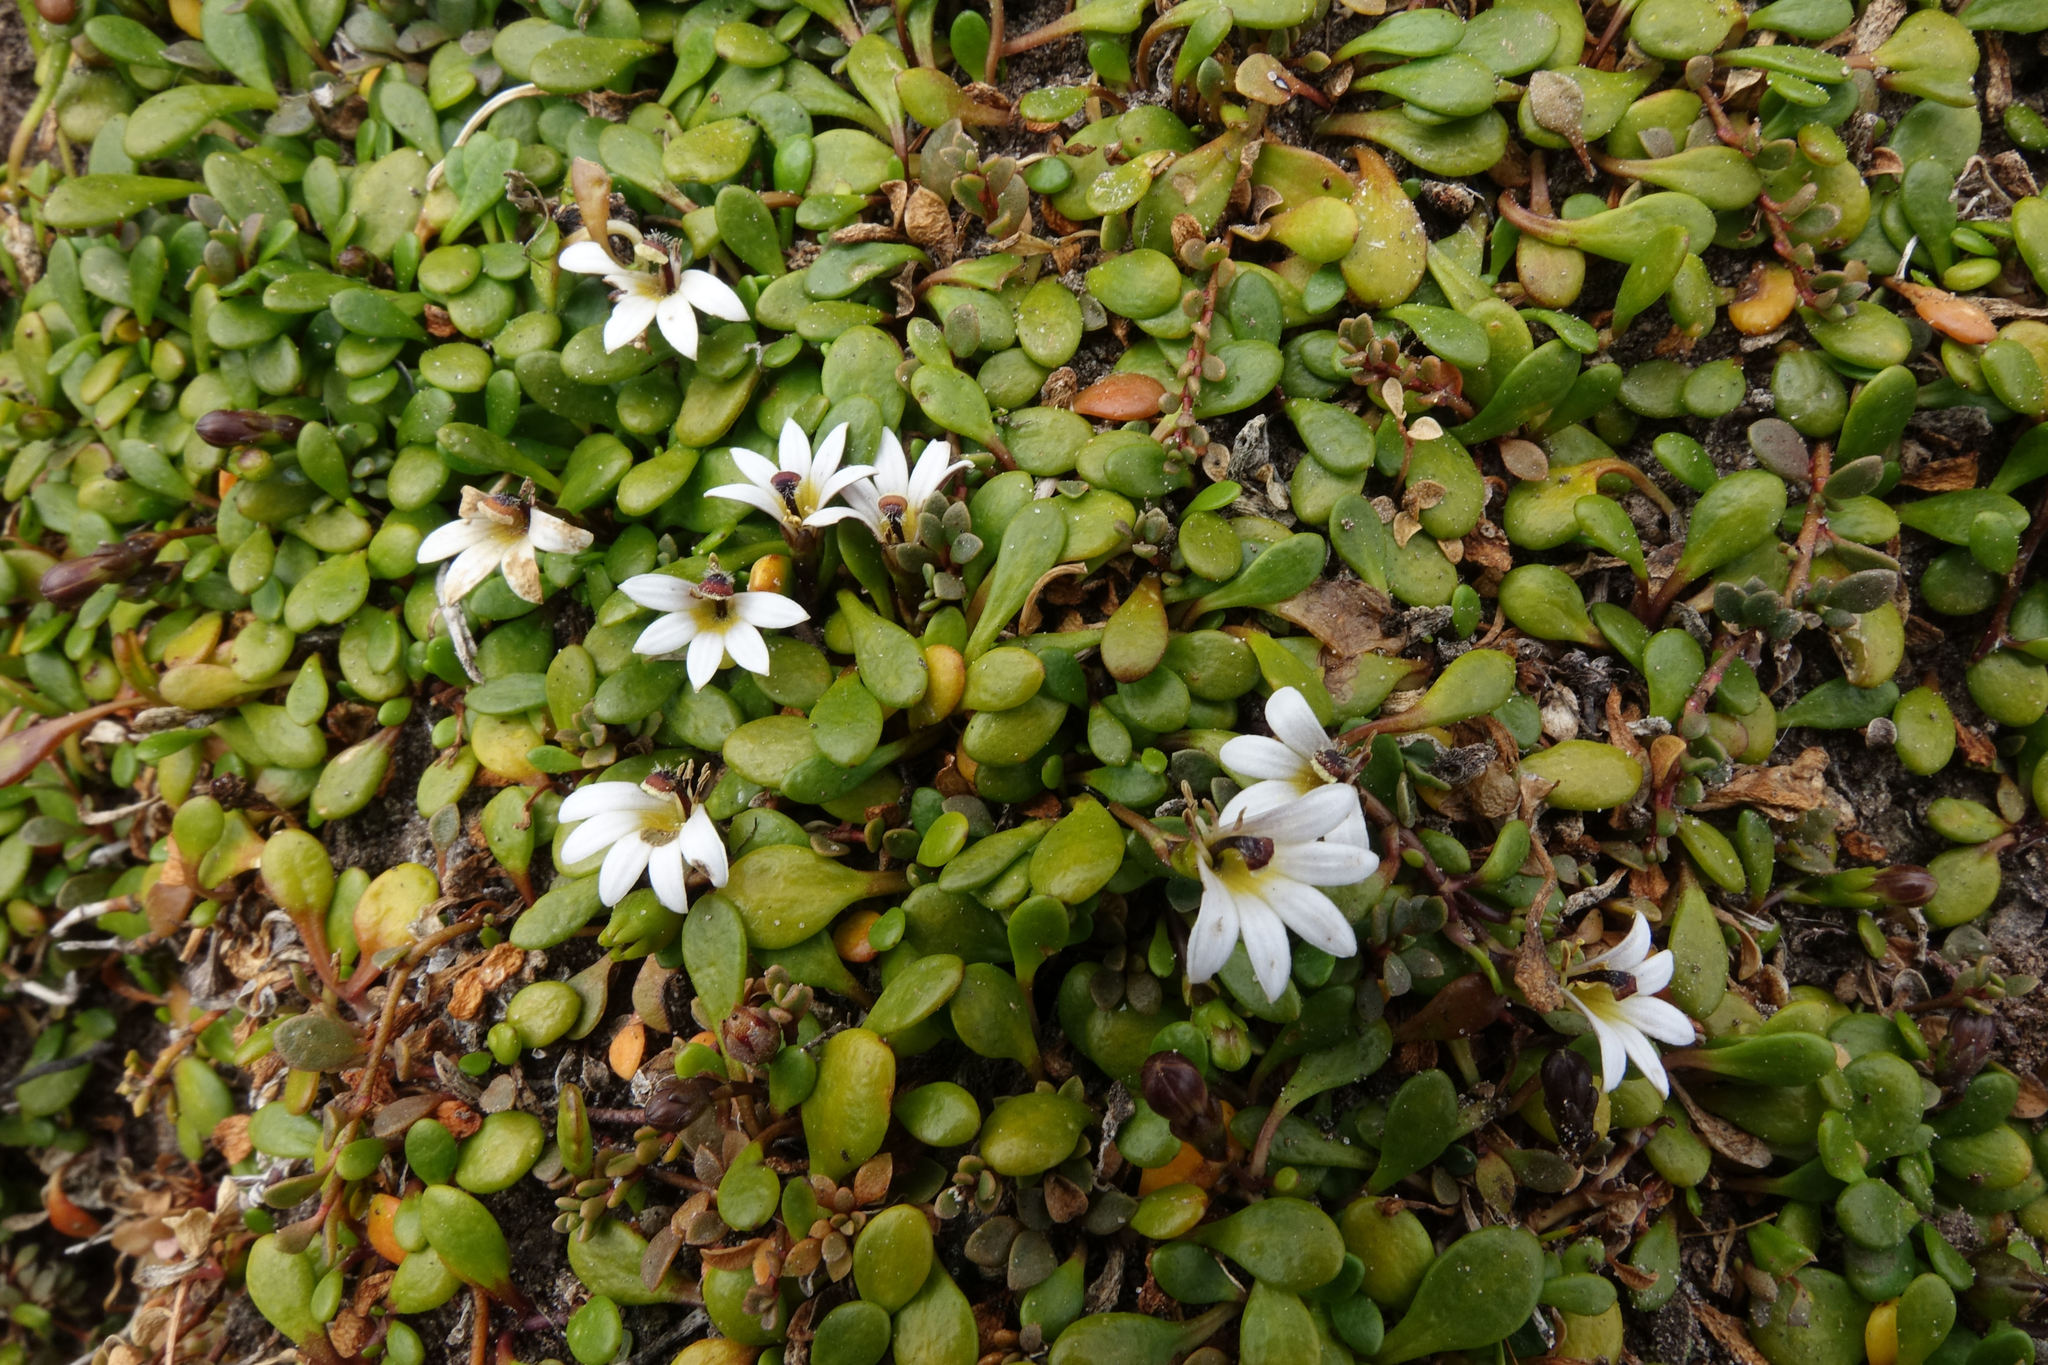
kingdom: Plantae
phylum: Tracheophyta
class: Magnoliopsida
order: Asterales
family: Goodeniaceae
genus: Goodenia
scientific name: Goodenia radicans
